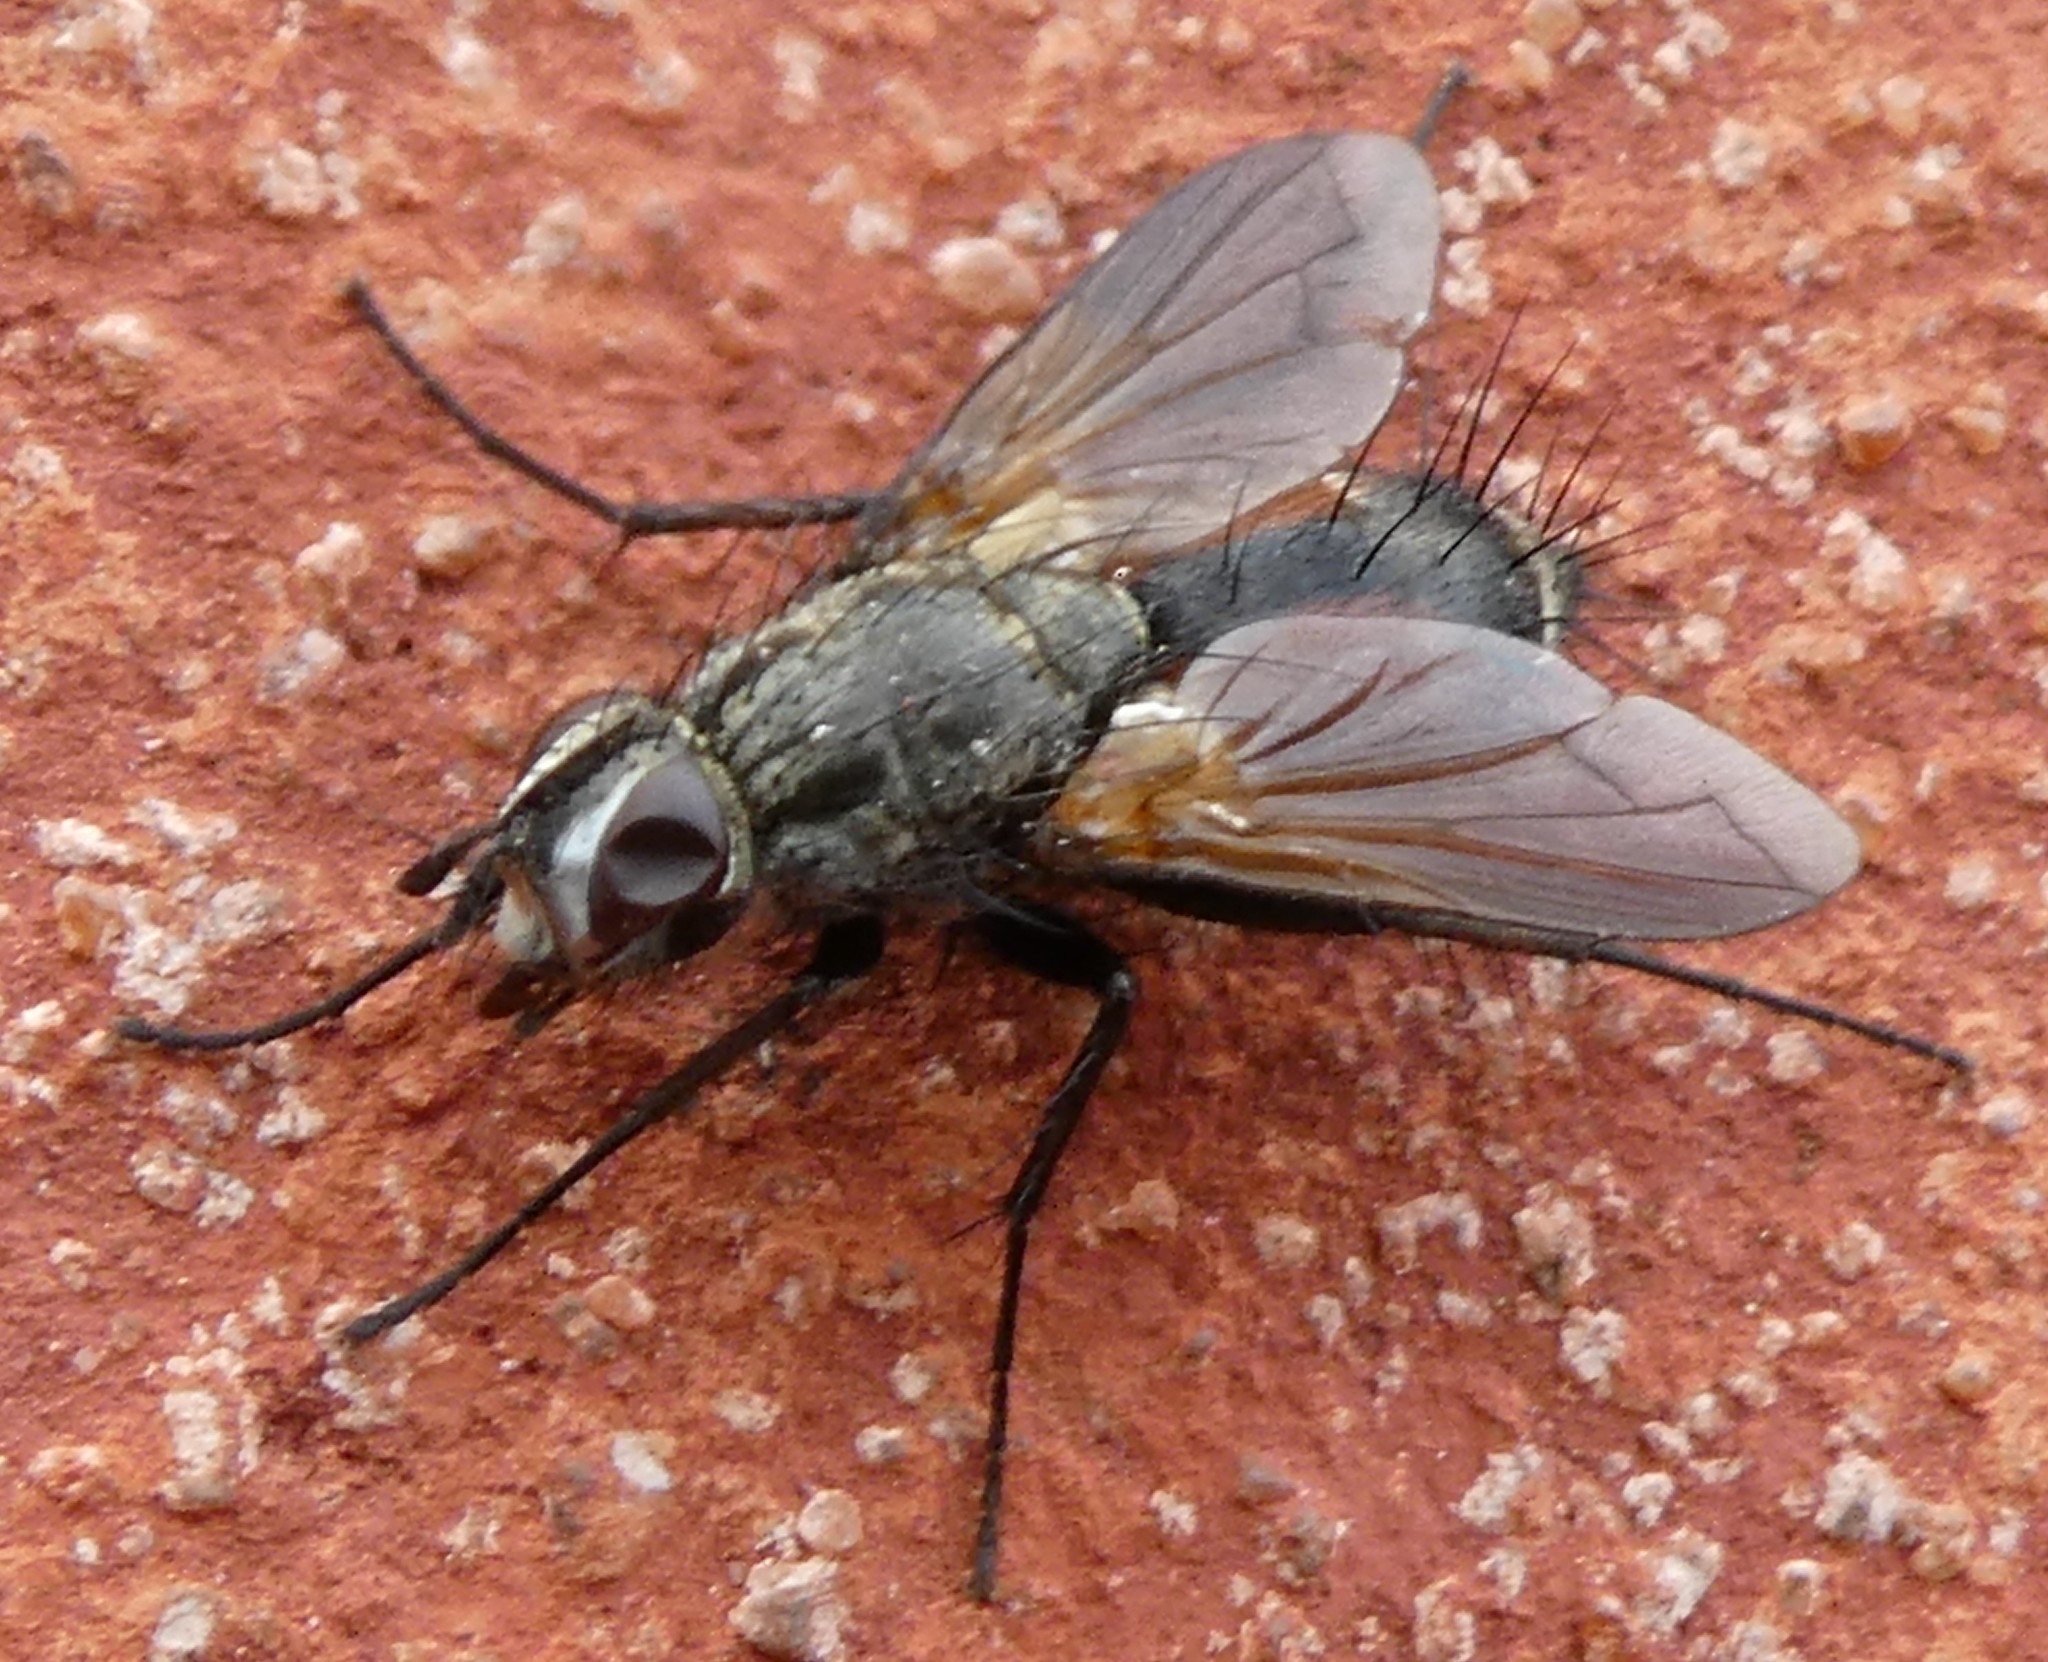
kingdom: Animalia
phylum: Arthropoda
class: Insecta
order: Diptera
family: Tachinidae
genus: Eriothrix
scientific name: Eriothrix rufomaculatus
